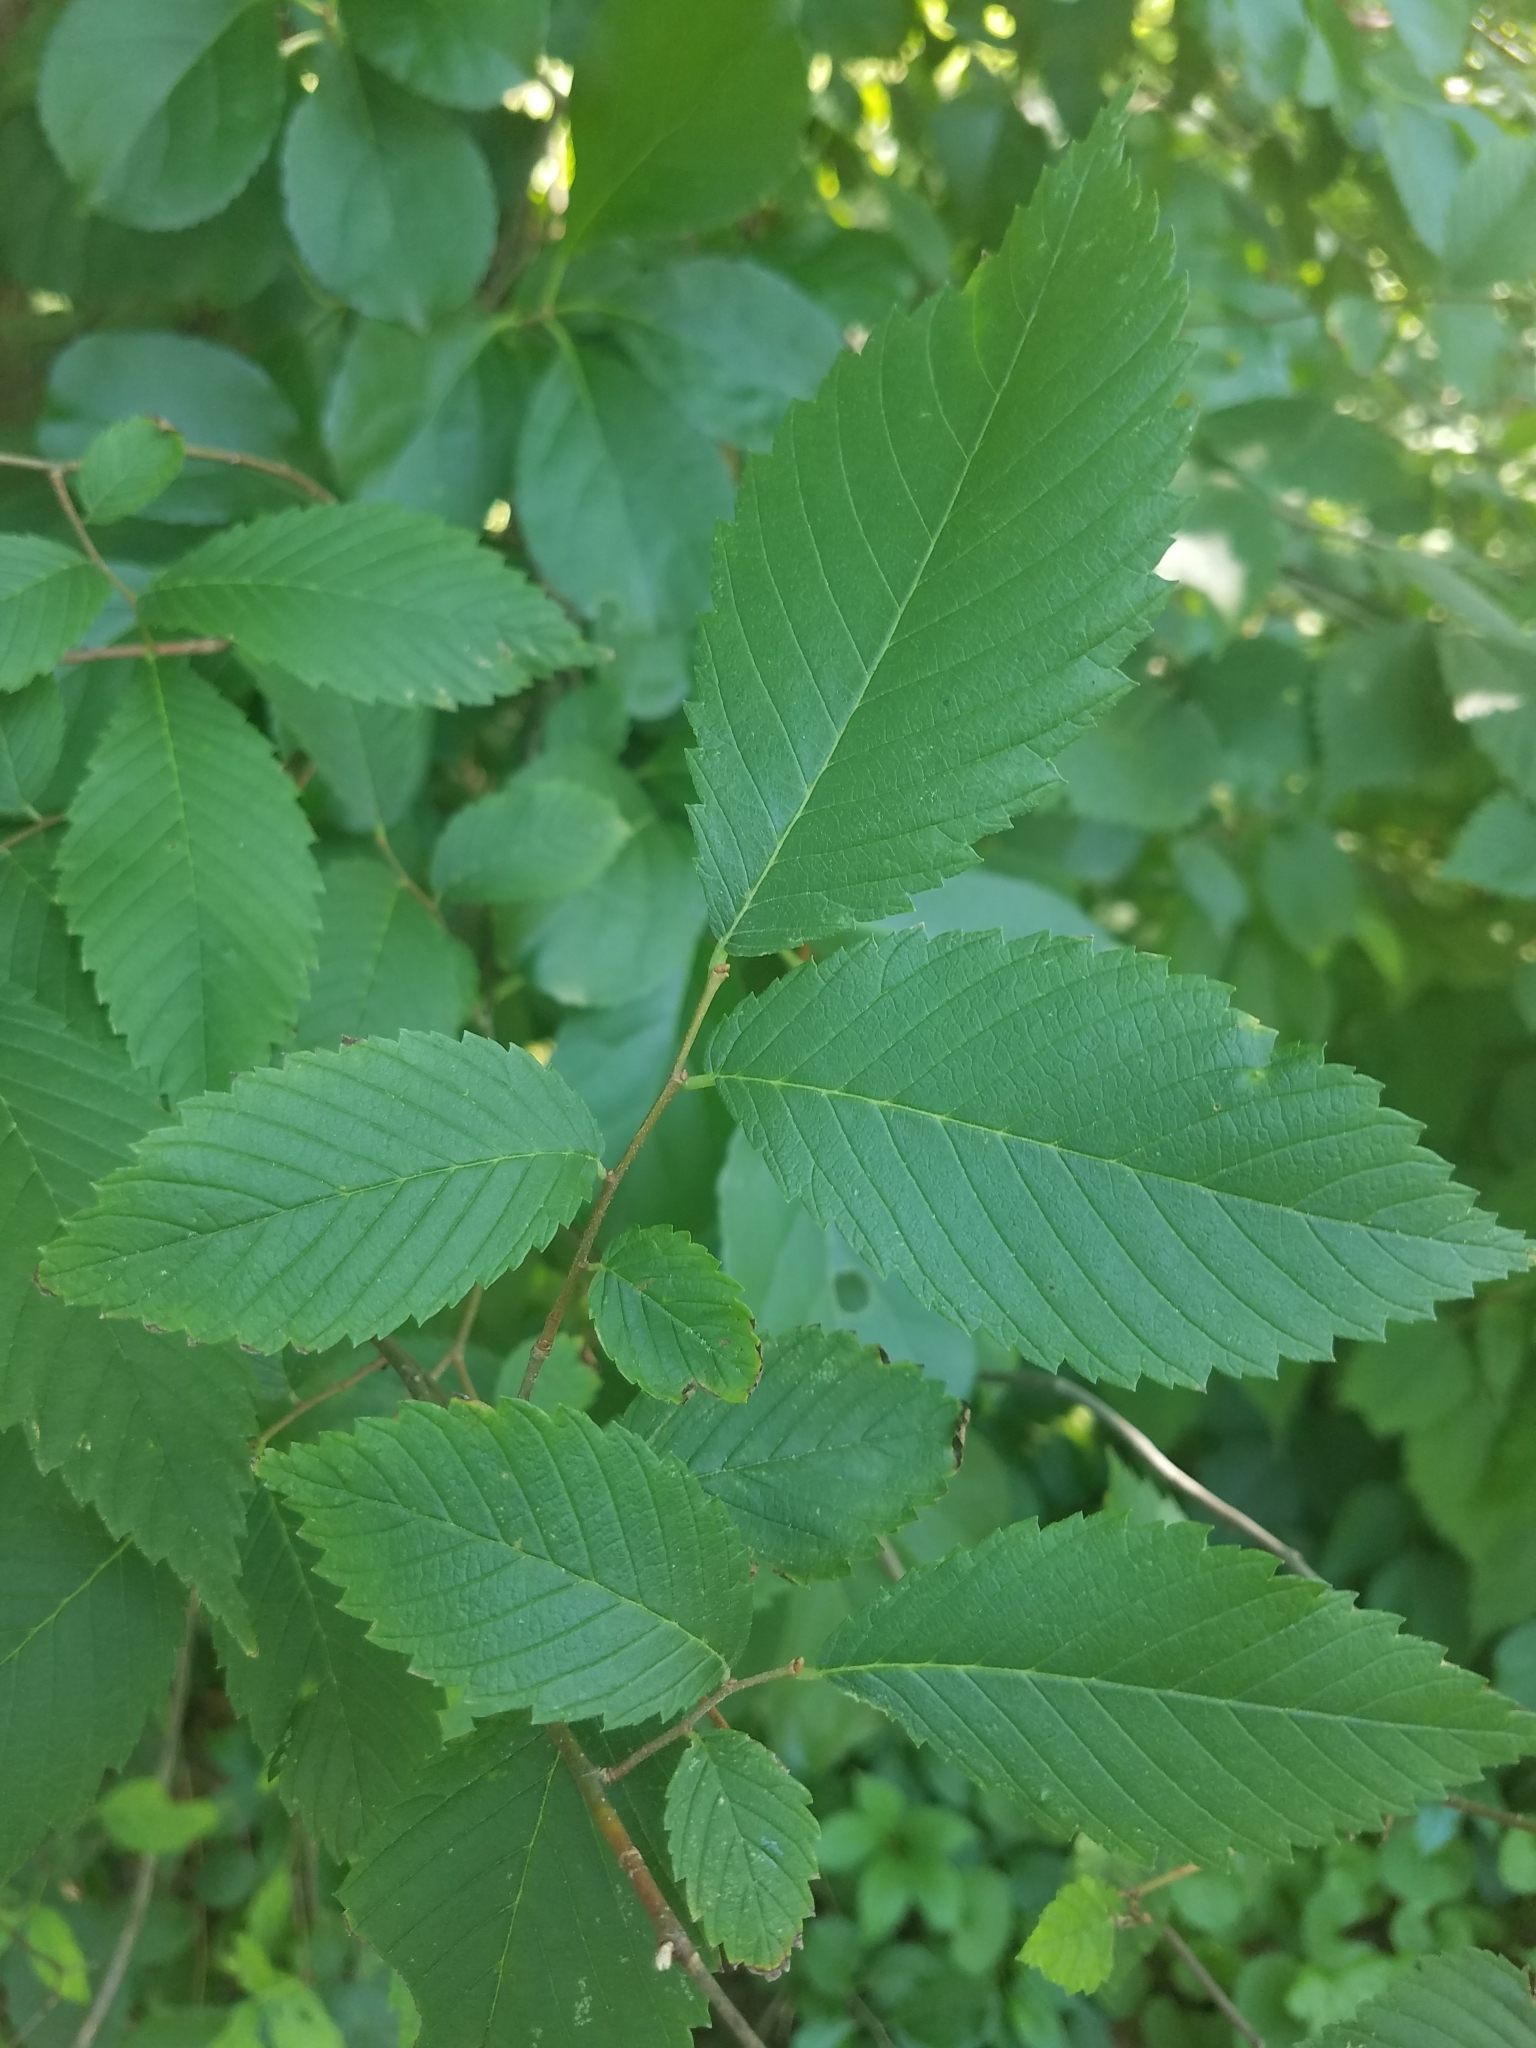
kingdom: Plantae
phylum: Tracheophyta
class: Magnoliopsida
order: Rosales
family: Ulmaceae
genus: Ulmus
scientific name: Ulmus americana
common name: American elm
